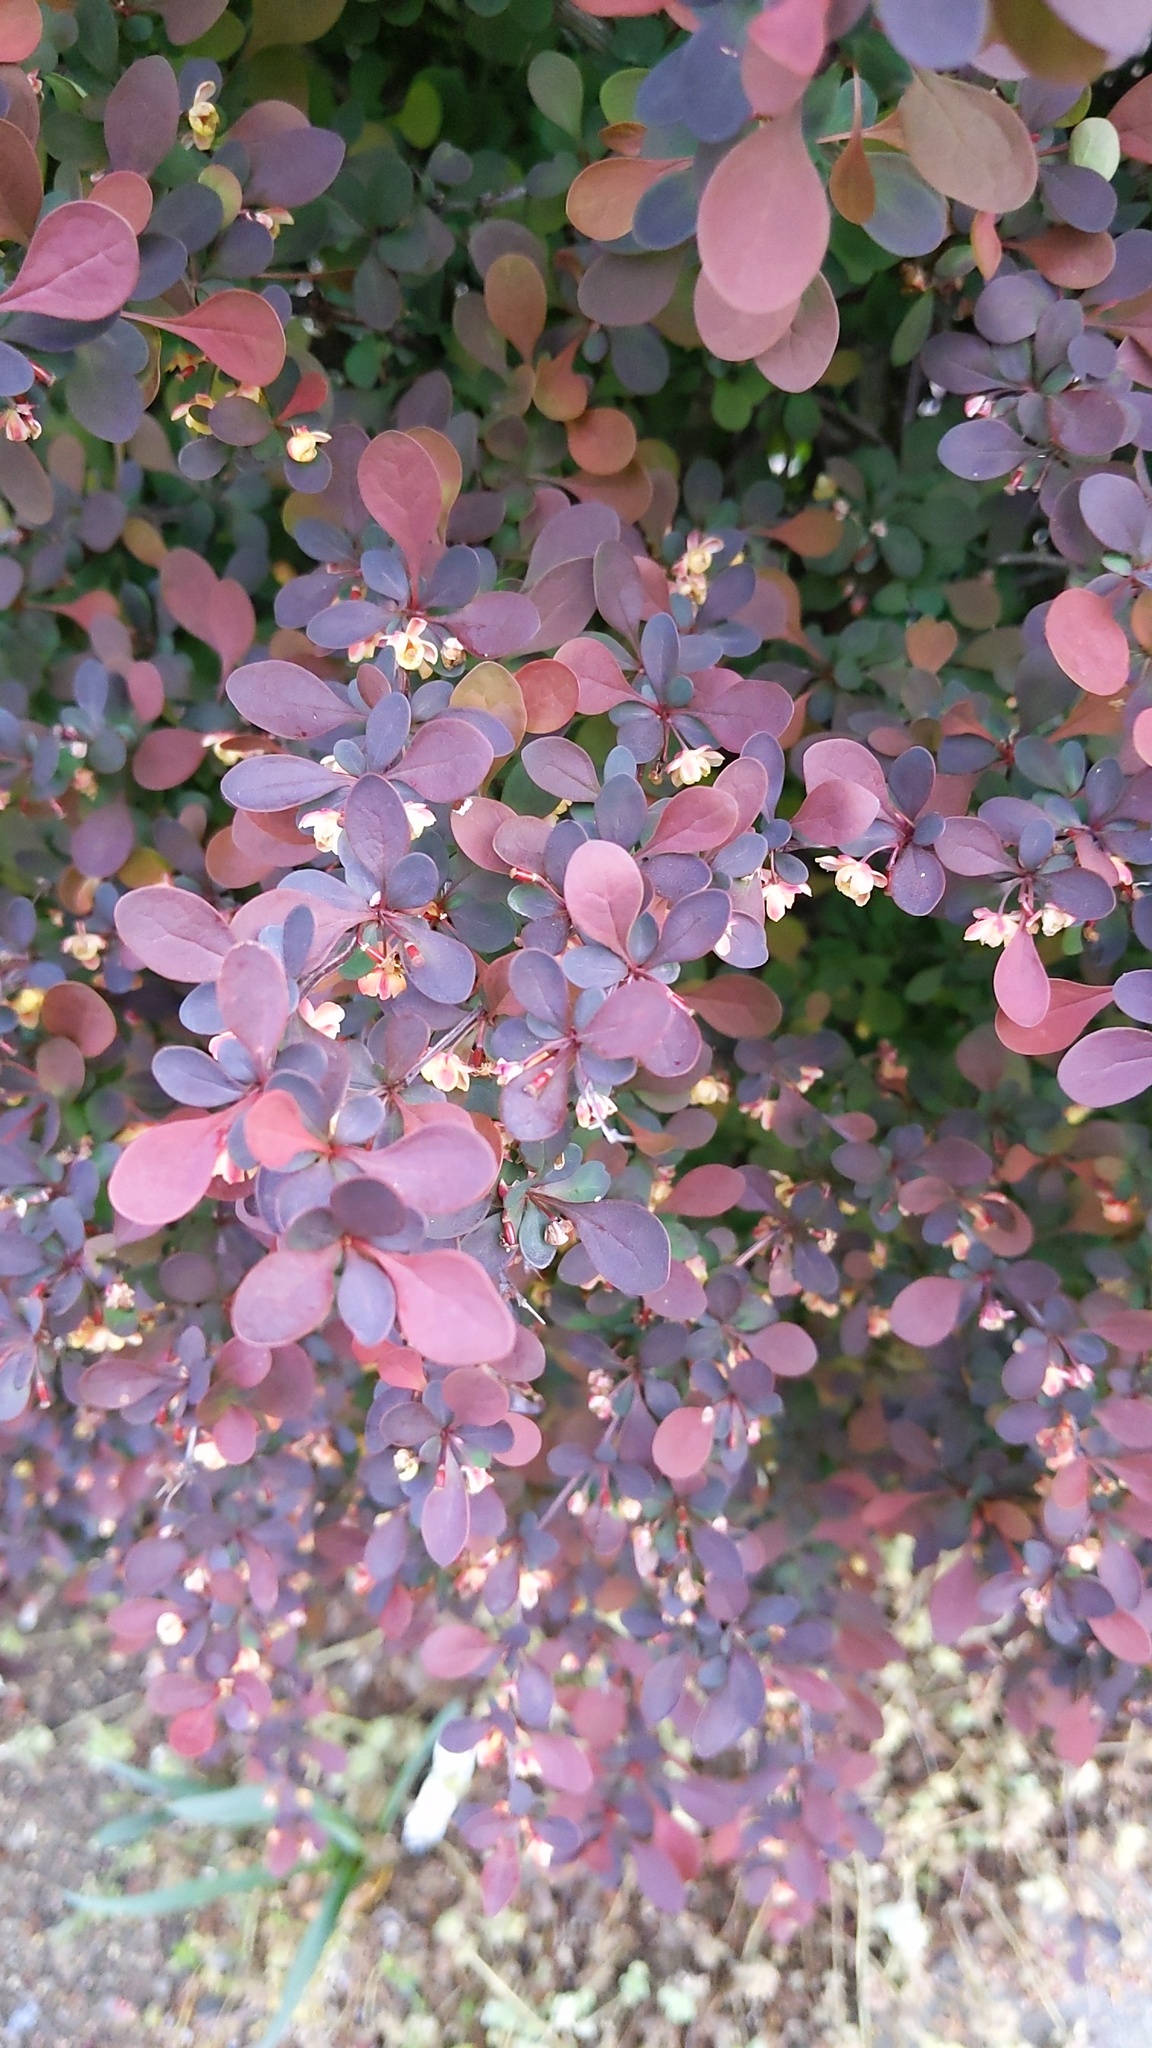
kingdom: Plantae
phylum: Tracheophyta
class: Magnoliopsida
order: Ranunculales
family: Berberidaceae
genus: Berberis
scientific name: Berberis thunbergii
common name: Japanese barberry
